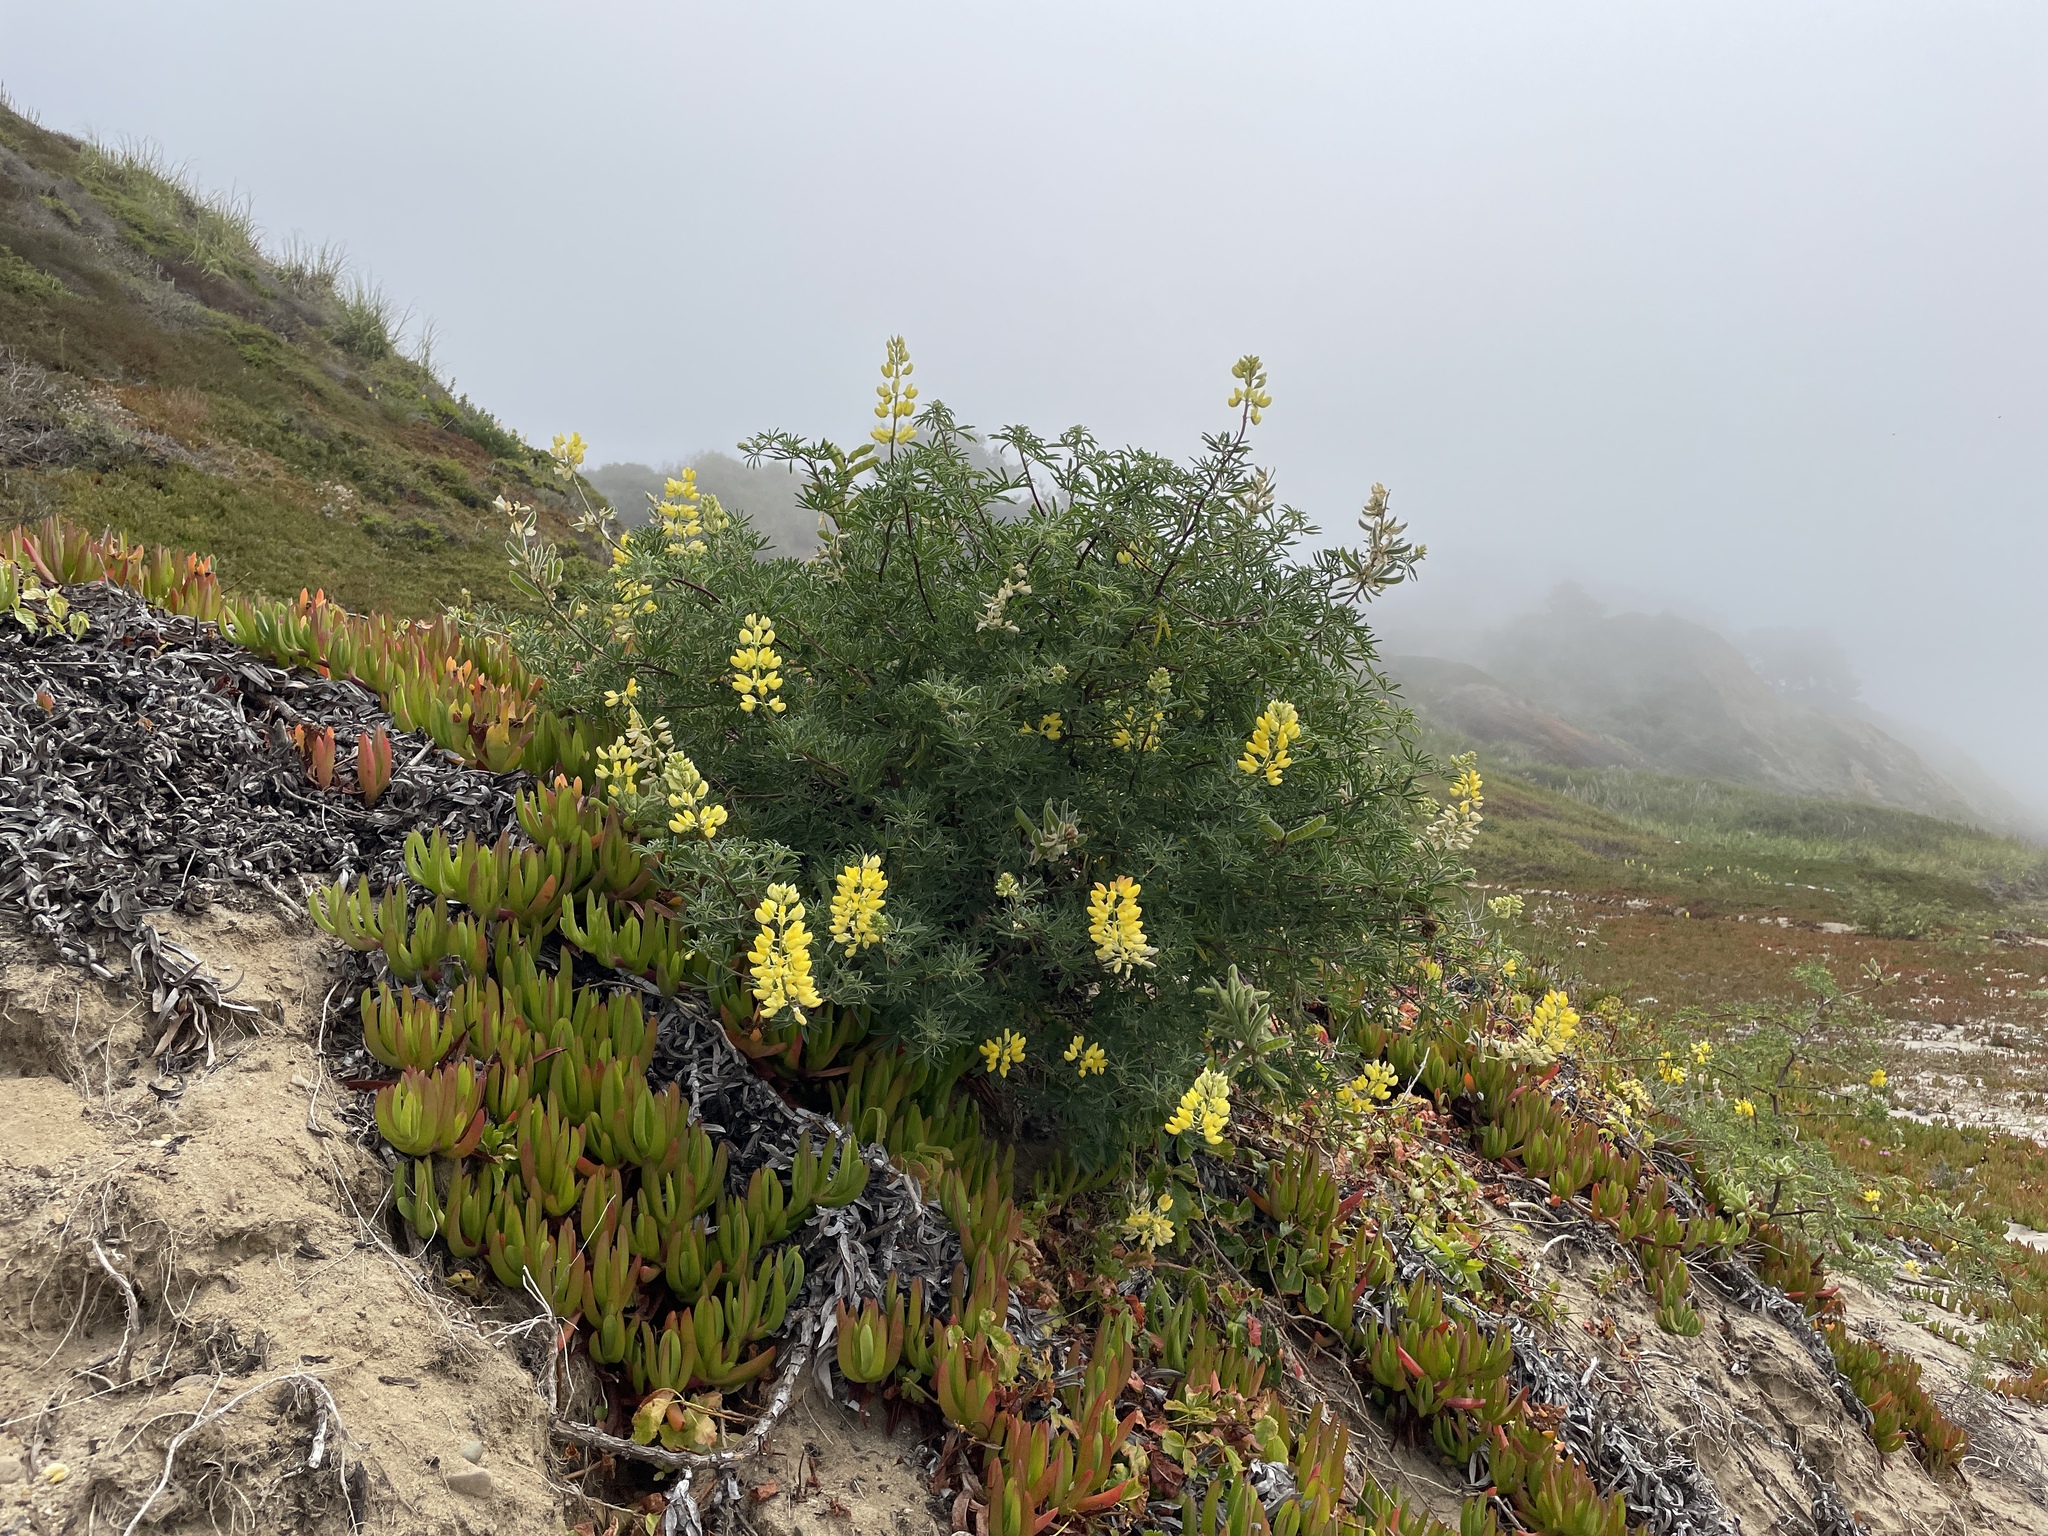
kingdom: Plantae
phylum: Tracheophyta
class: Magnoliopsida
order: Fabales
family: Fabaceae
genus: Lupinus
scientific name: Lupinus arboreus
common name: Yellow bush lupine
